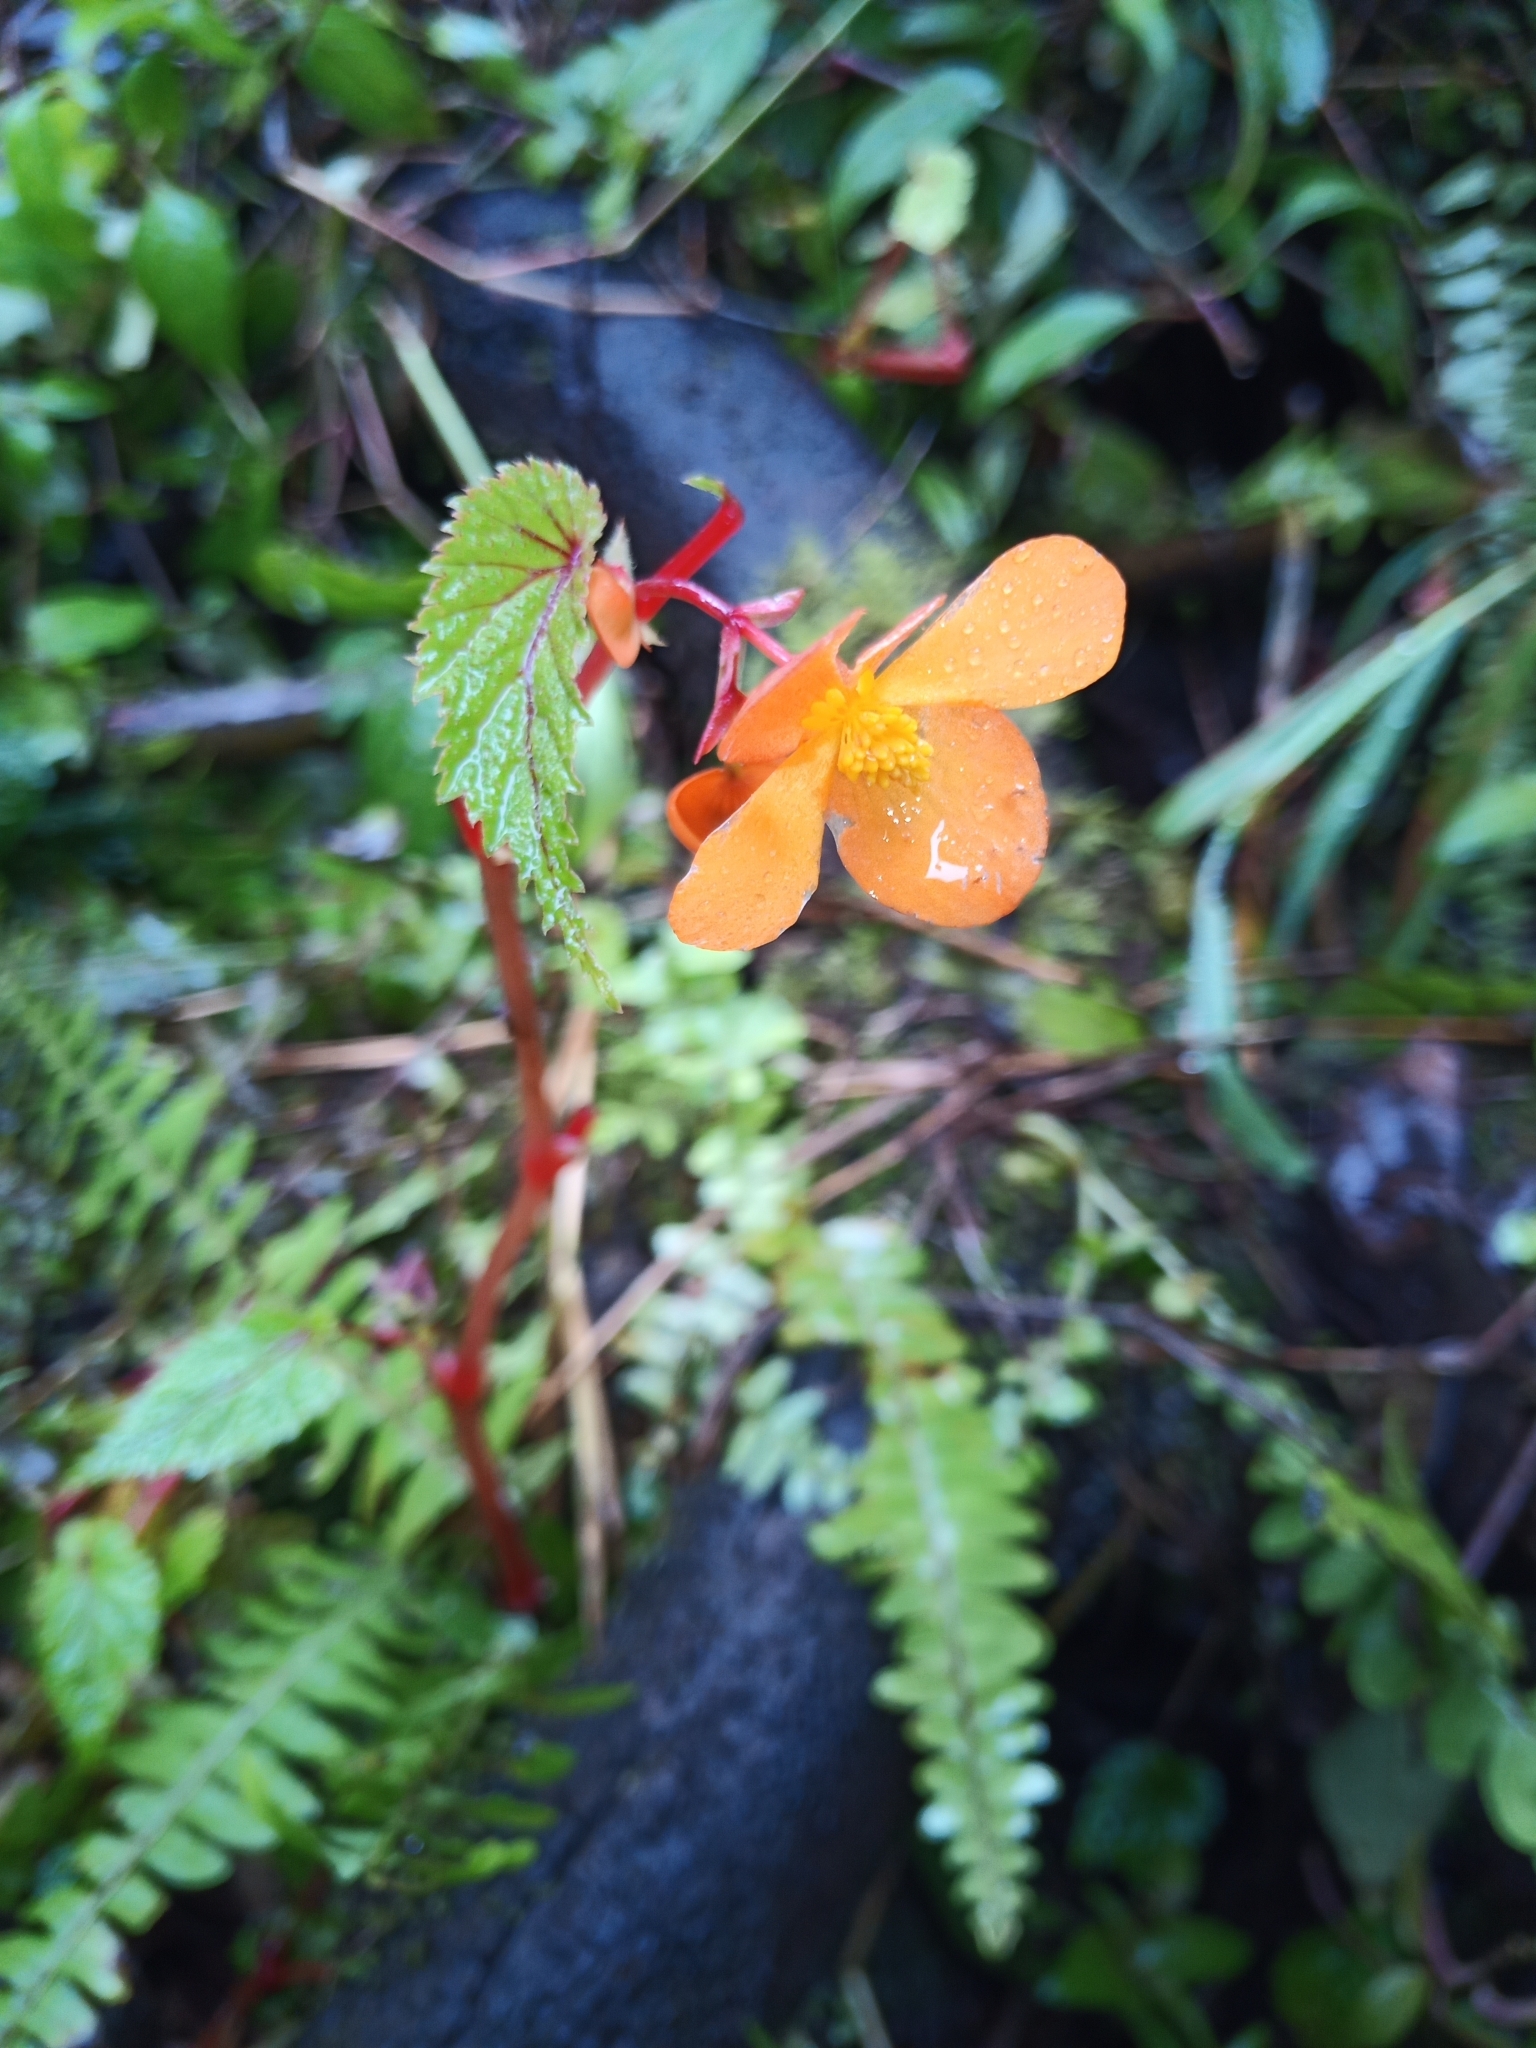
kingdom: Plantae
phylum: Tracheophyta
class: Magnoliopsida
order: Cucurbitales
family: Begoniaceae
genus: Begonia
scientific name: Begonia sutherlandii
